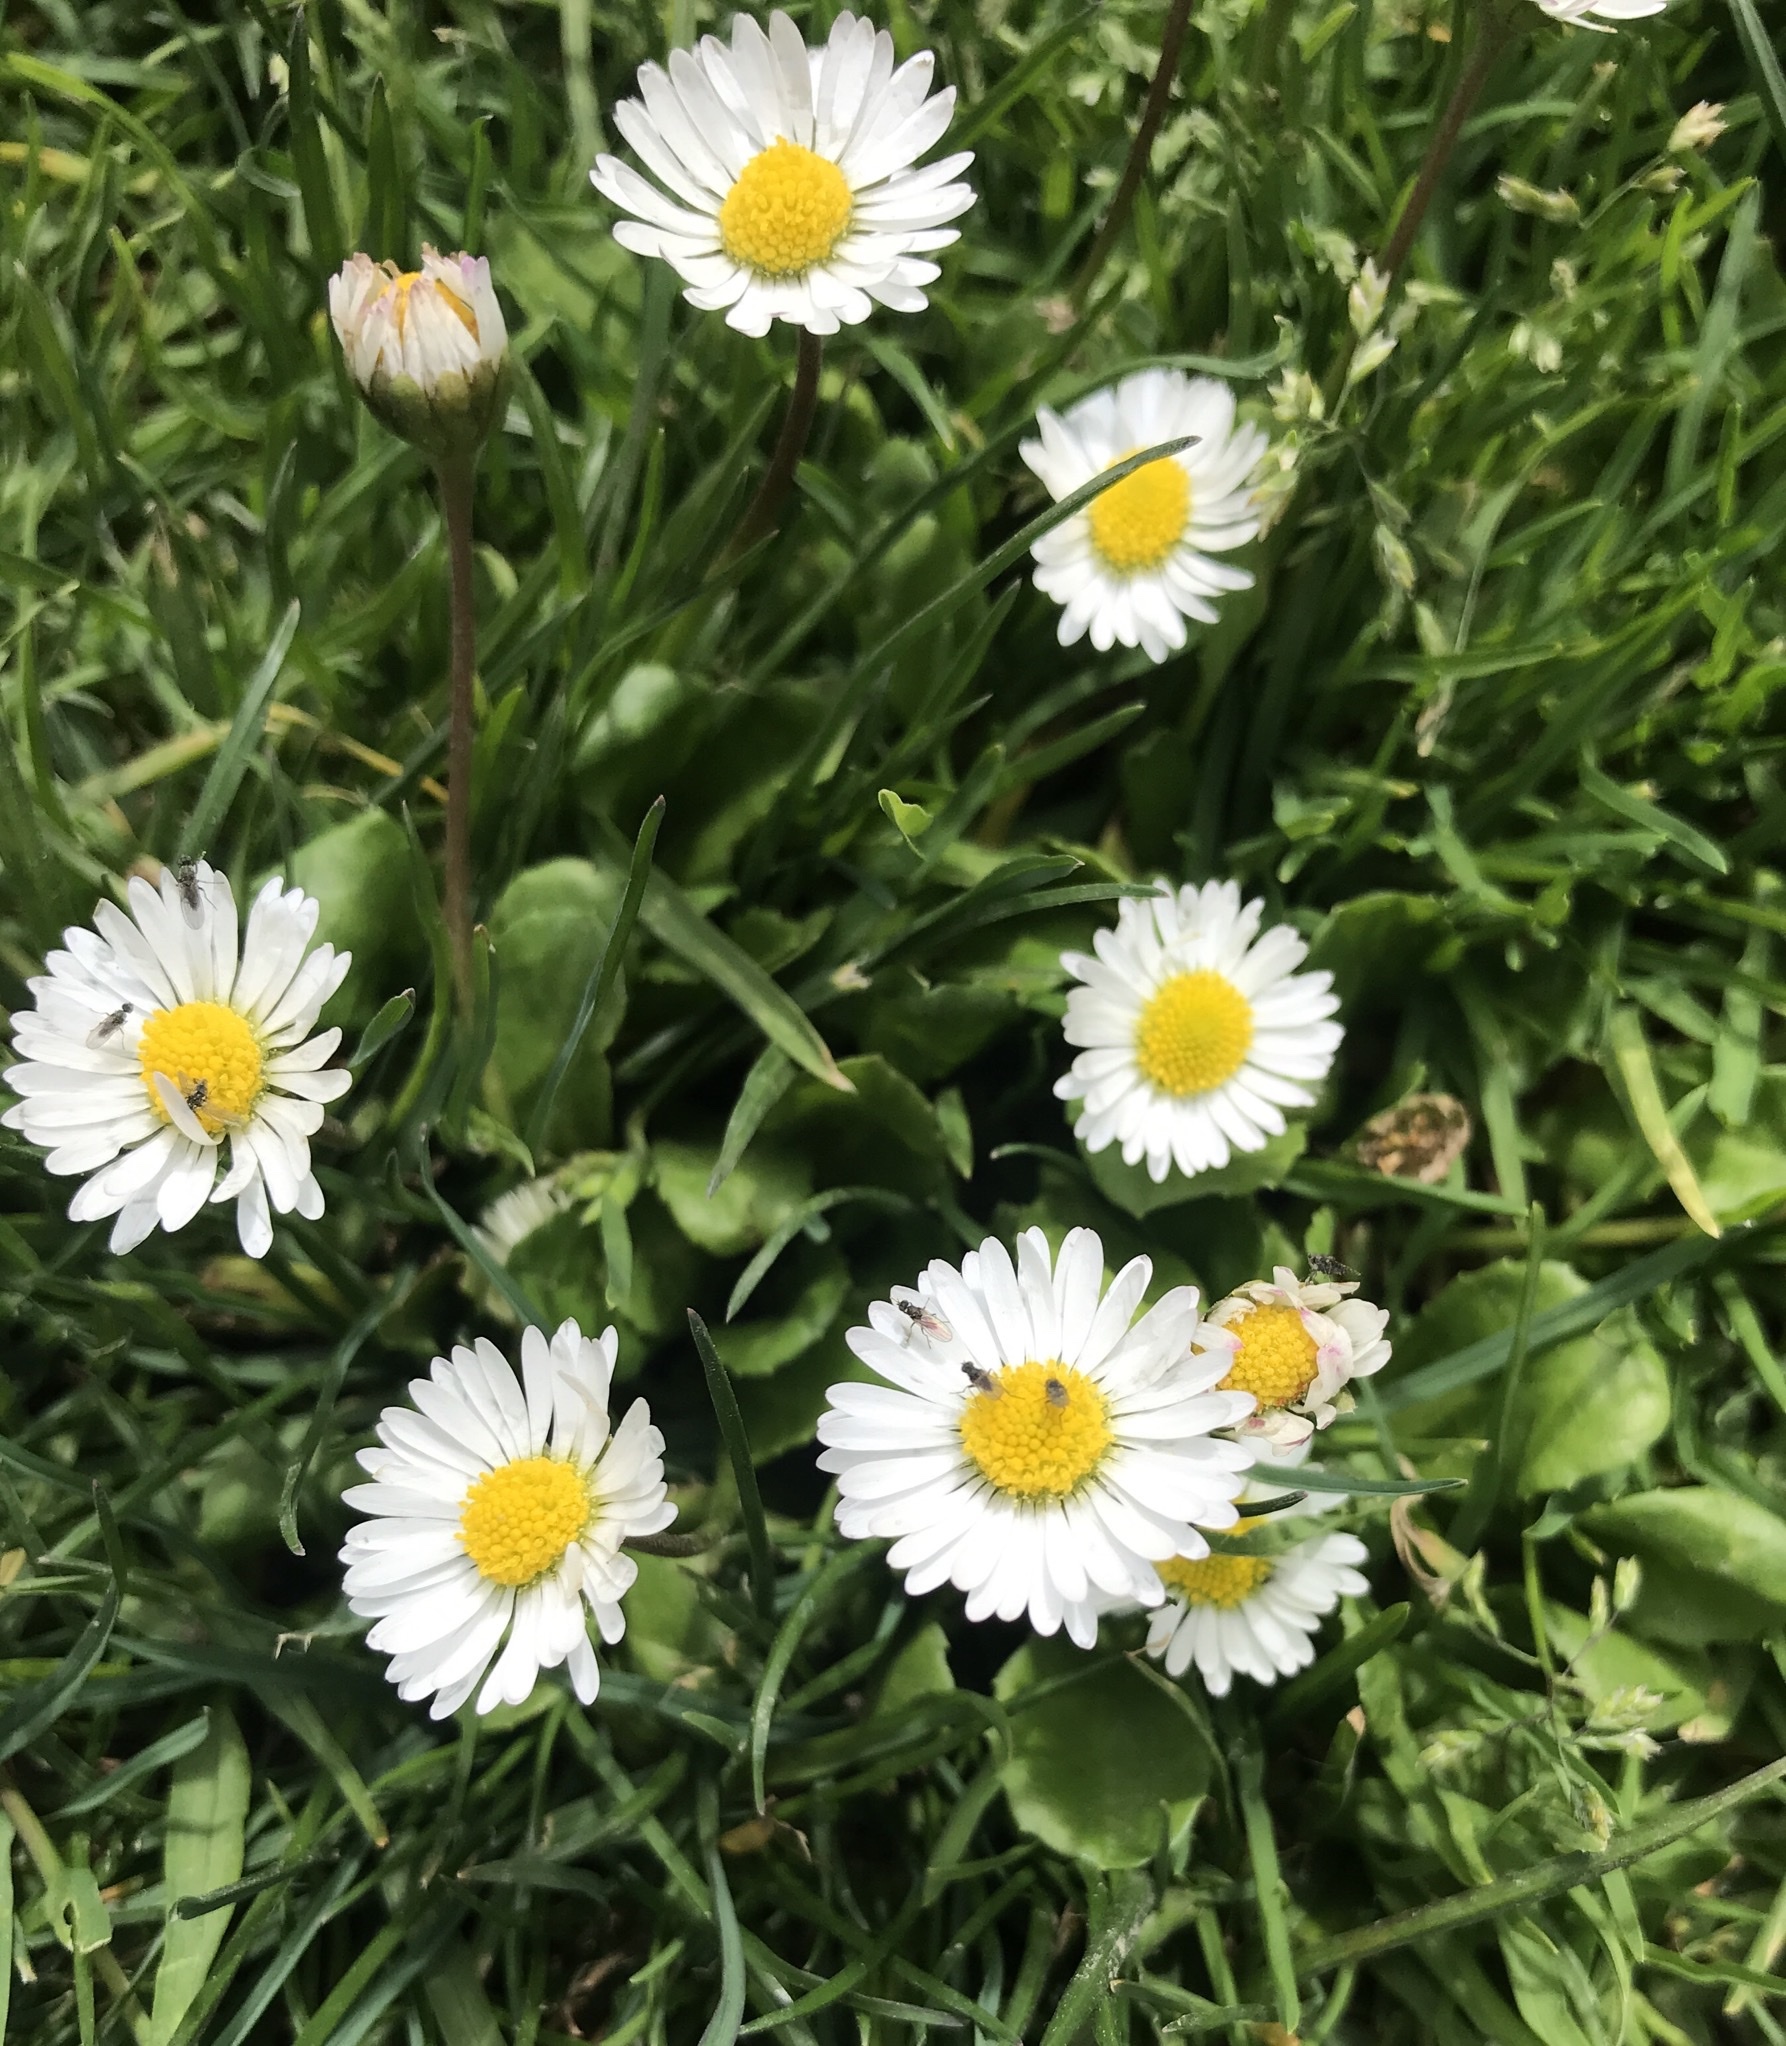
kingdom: Plantae
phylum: Tracheophyta
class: Magnoliopsida
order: Asterales
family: Asteraceae
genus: Bellis
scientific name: Bellis perennis
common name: Lawndaisy
